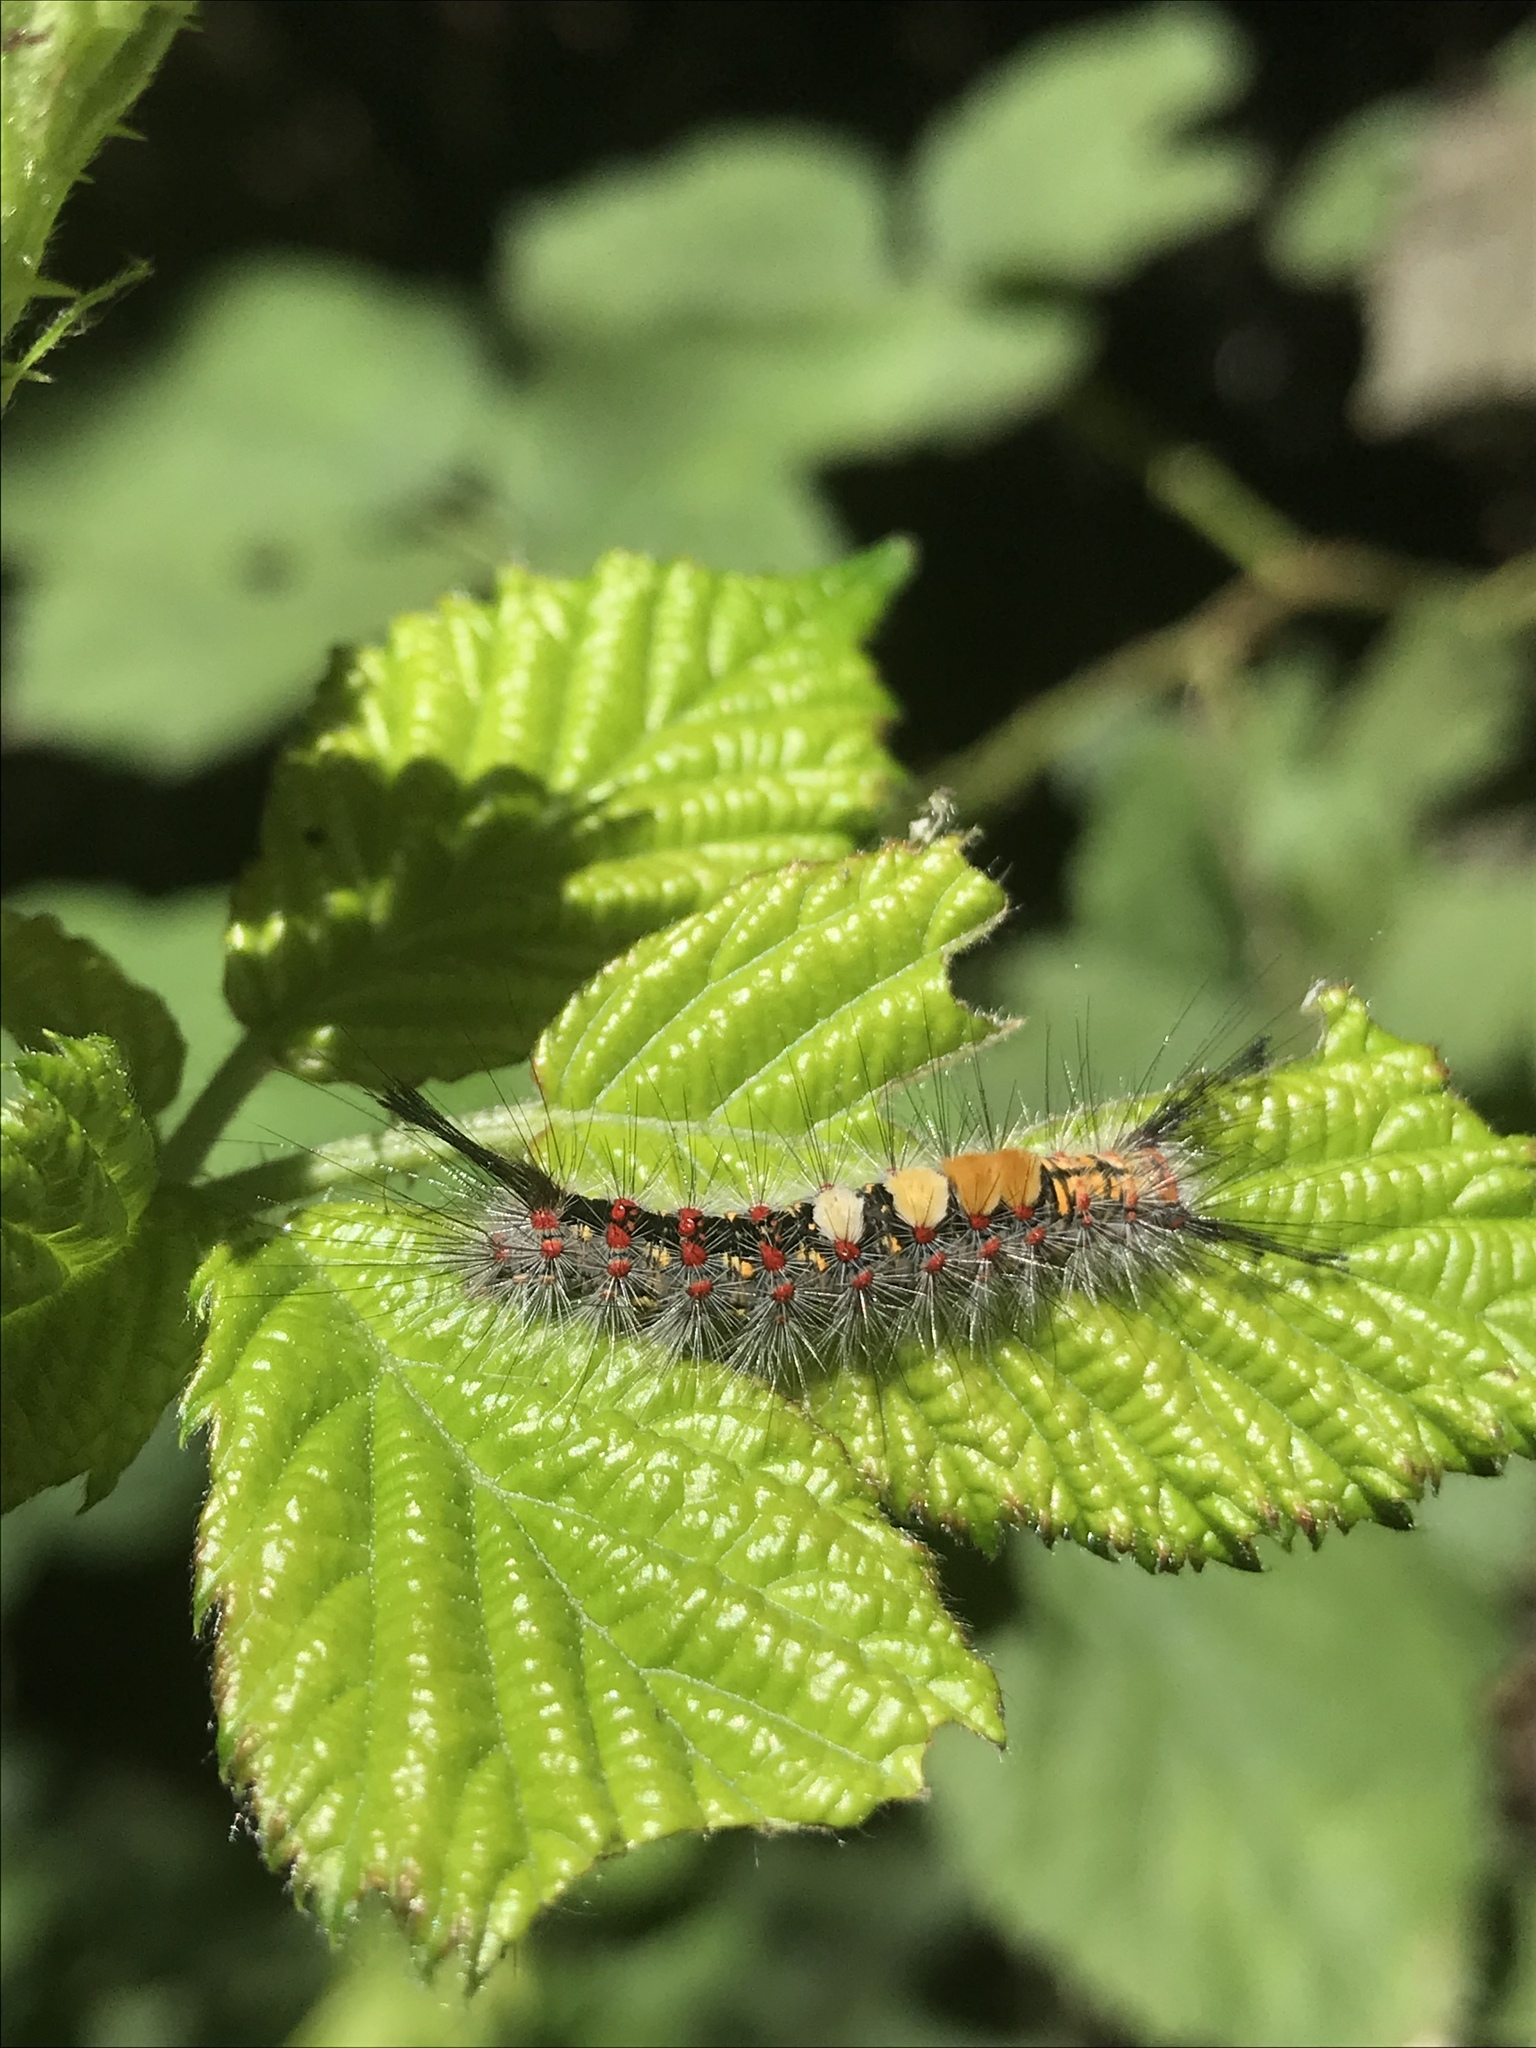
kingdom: Animalia
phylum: Arthropoda
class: Insecta
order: Lepidoptera
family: Erebidae
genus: Orgyia
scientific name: Orgyia vetusta
